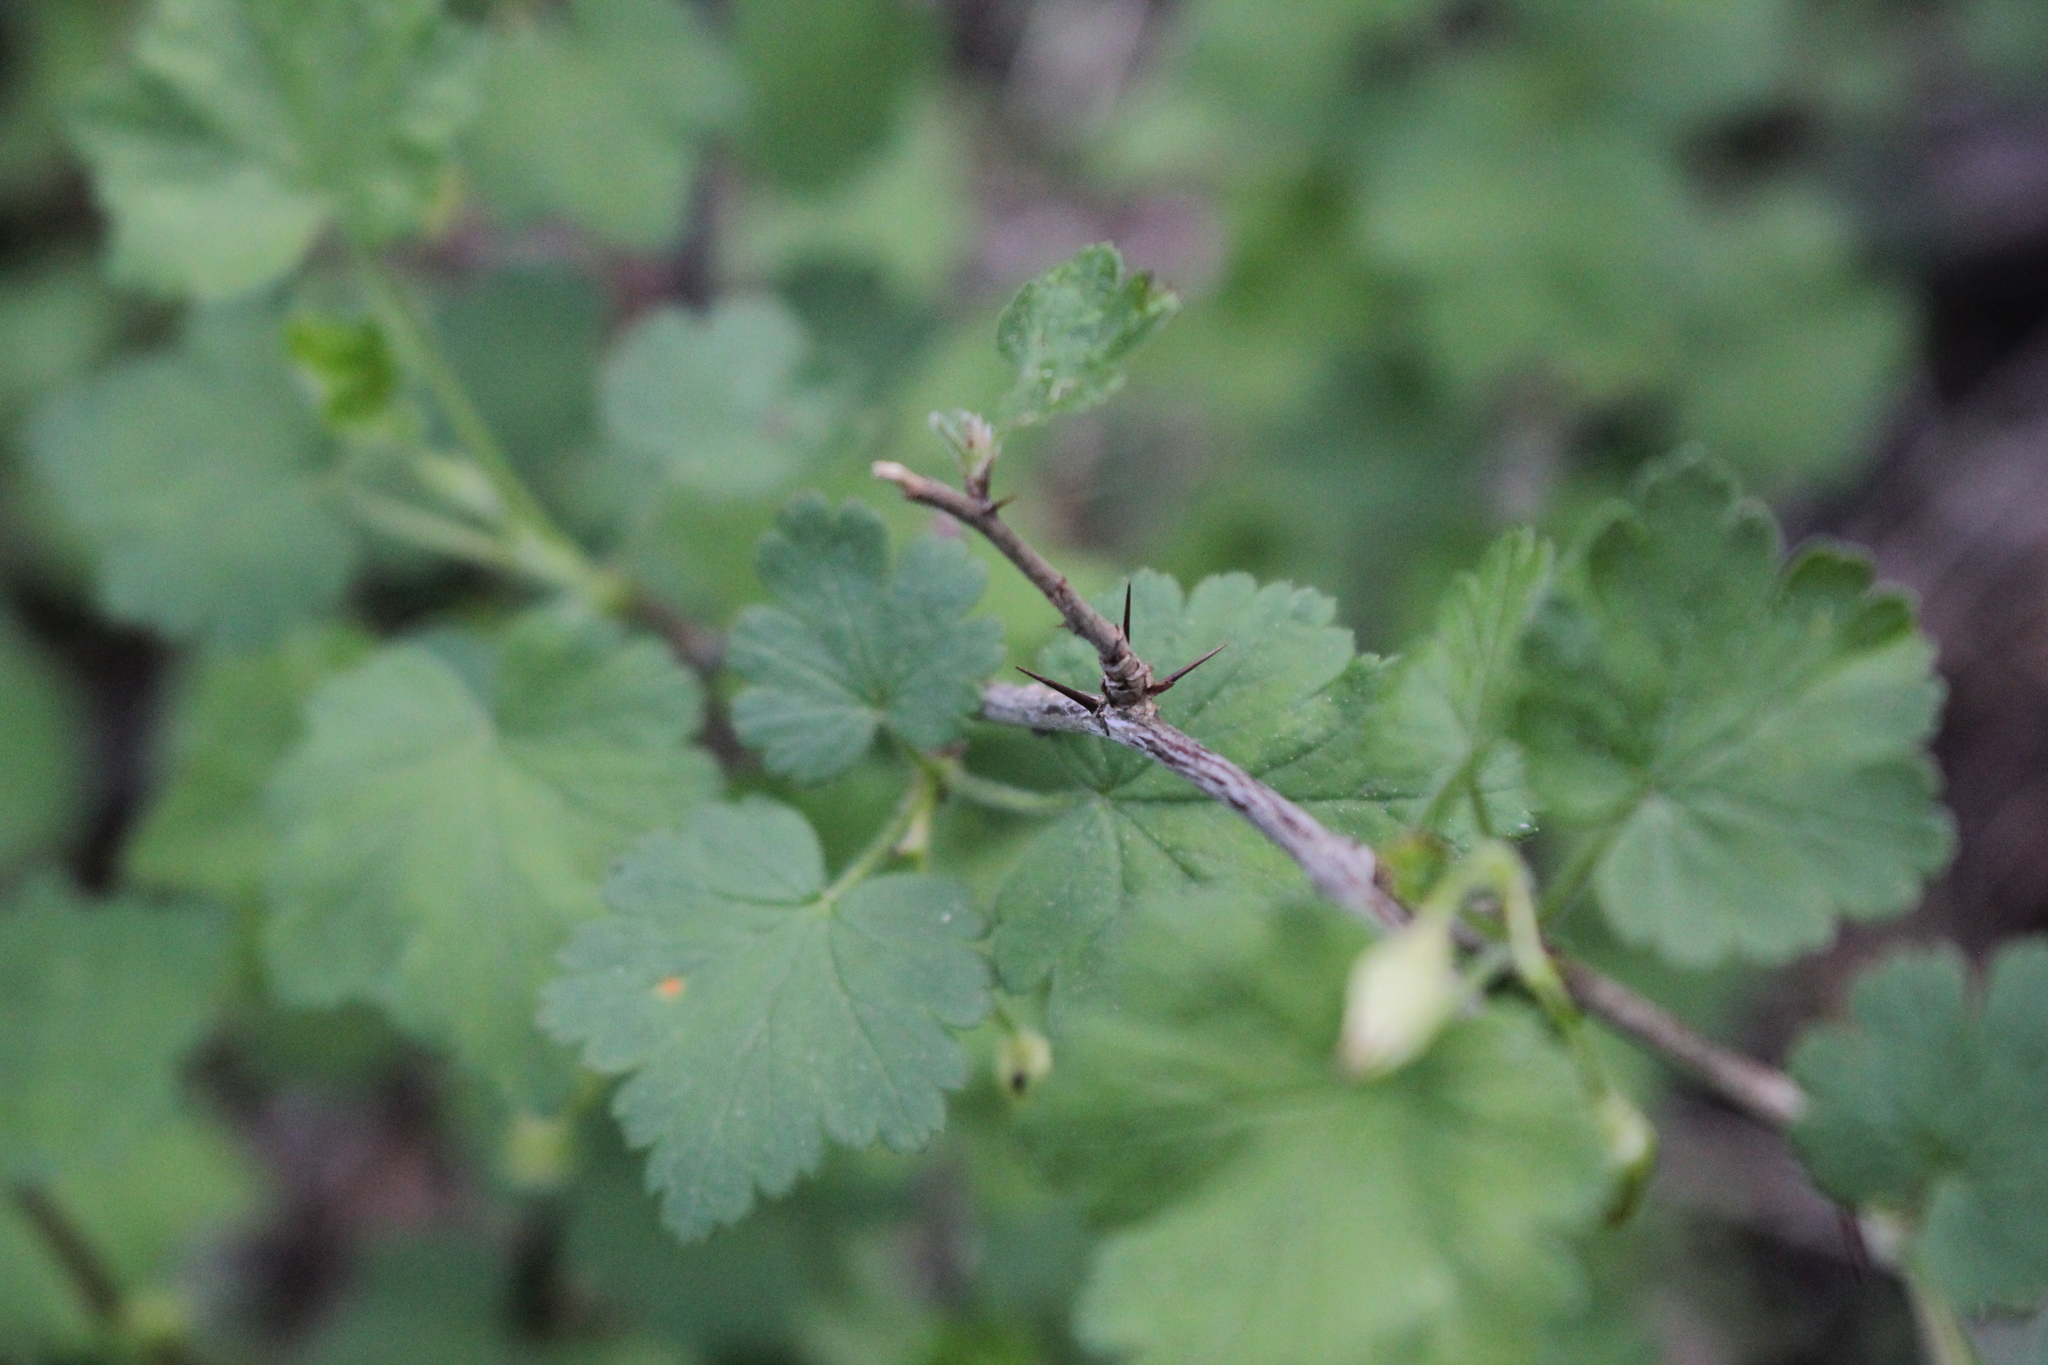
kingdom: Plantae
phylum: Tracheophyta
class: Magnoliopsida
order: Saxifragales
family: Grossulariaceae
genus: Ribes
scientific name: Ribes cynosbati
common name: American gooseberry
